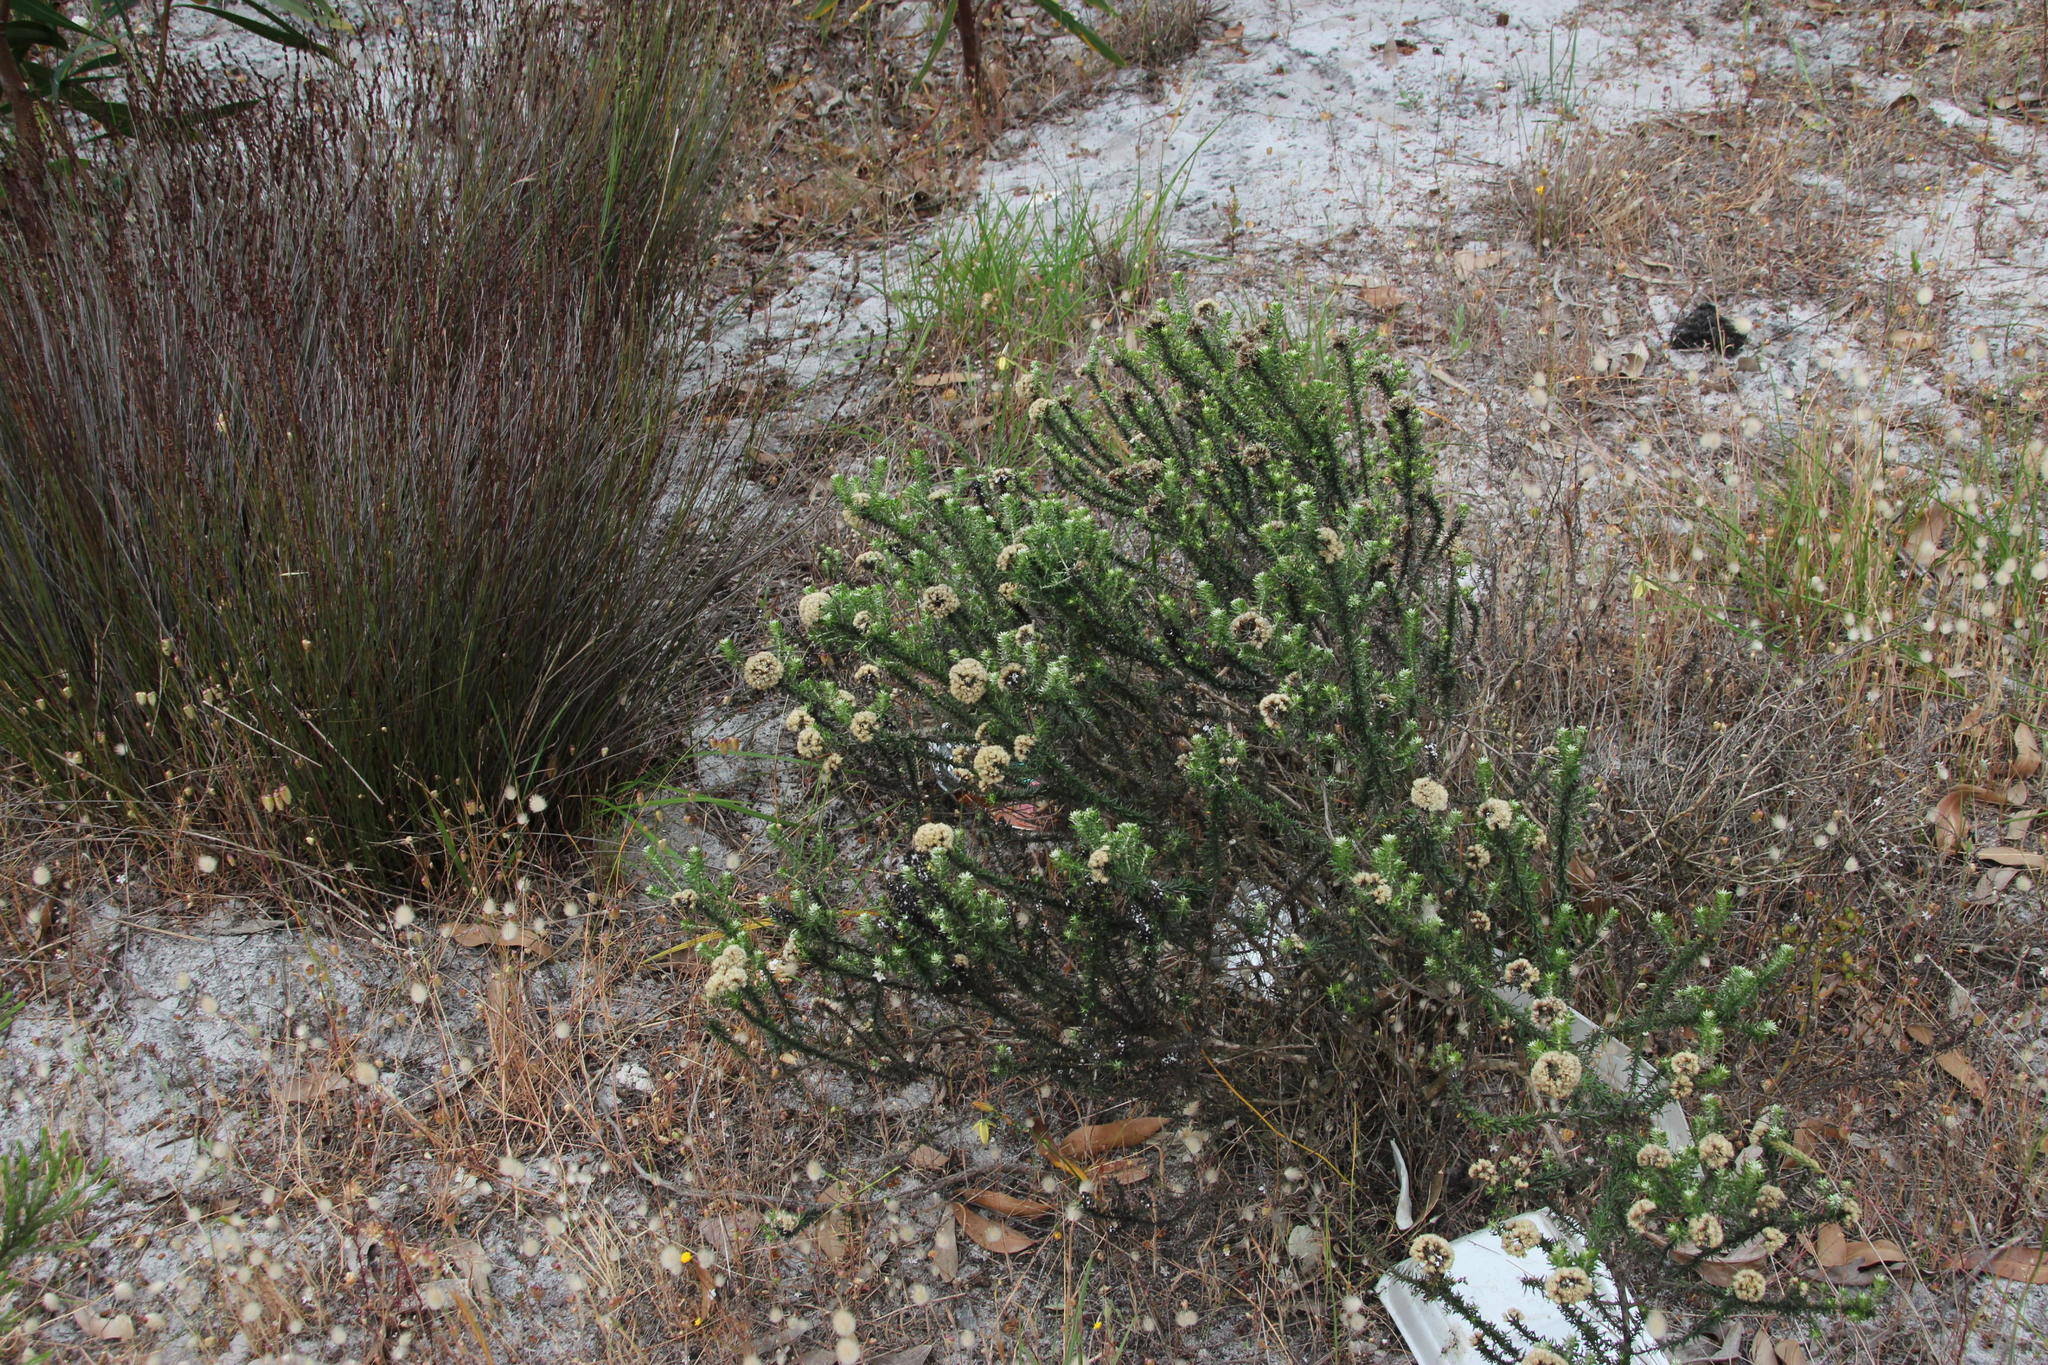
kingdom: Plantae
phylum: Tracheophyta
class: Magnoliopsida
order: Asterales
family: Asteraceae
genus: Metalasia
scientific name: Metalasia densa
